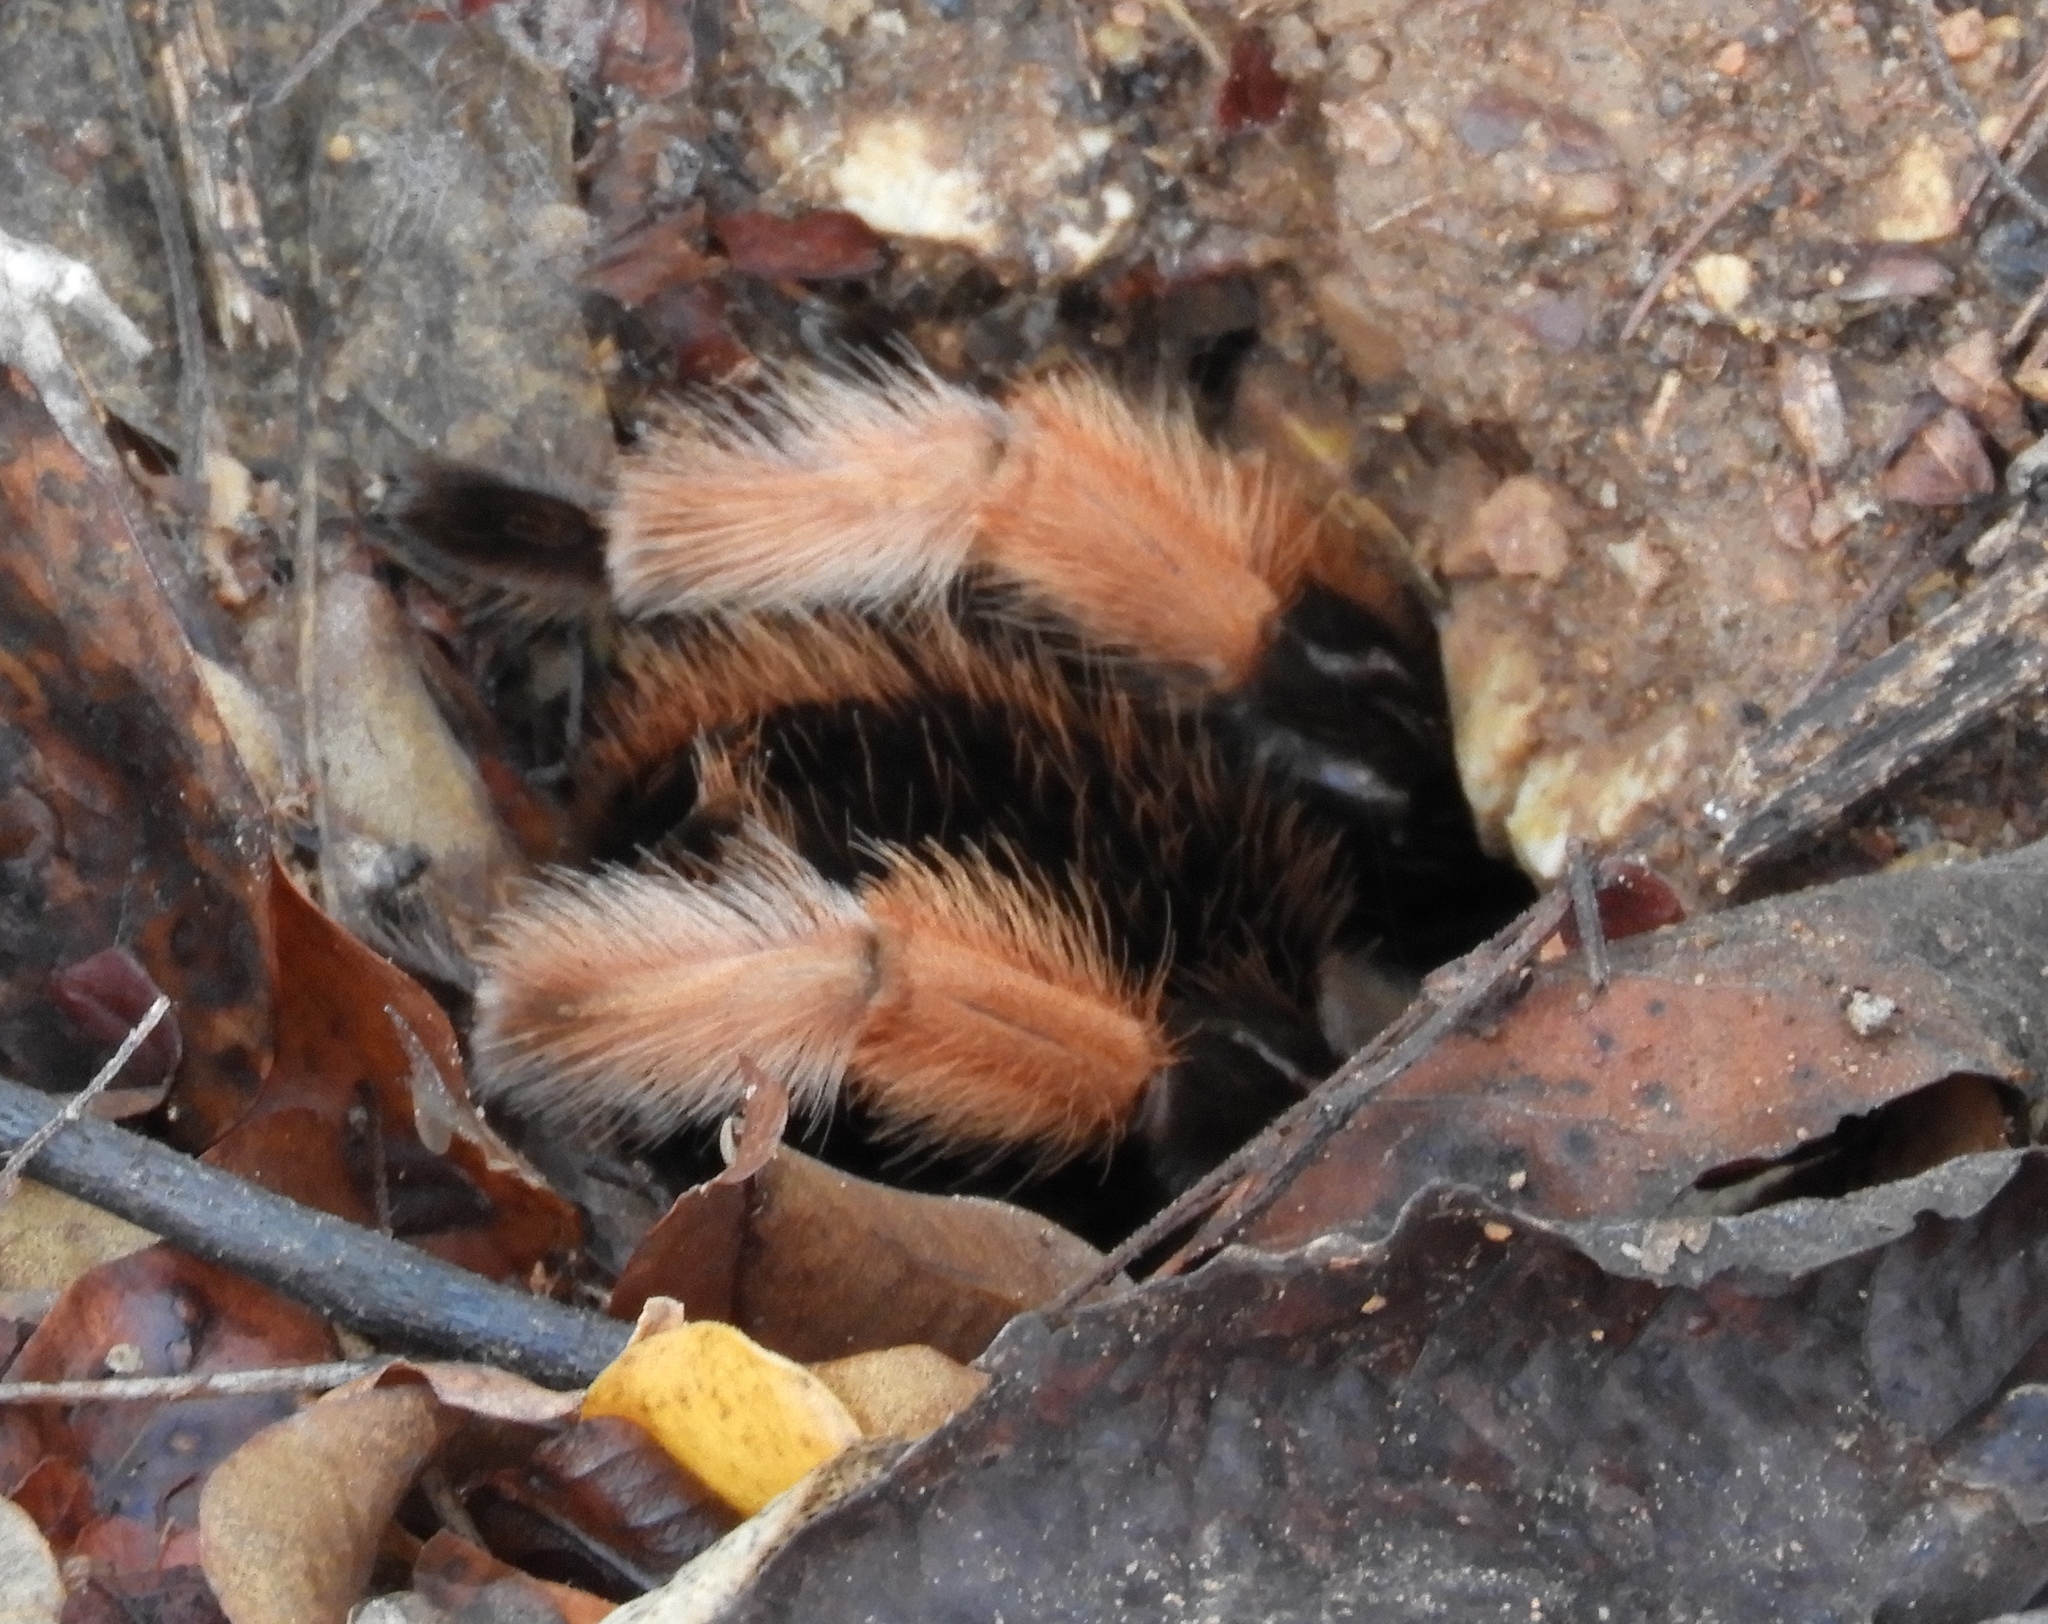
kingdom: Animalia
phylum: Arthropoda
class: Arachnida
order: Araneae
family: Theraphosidae
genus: Brachypelma
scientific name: Brachypelma emilia
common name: Mexican redleg
